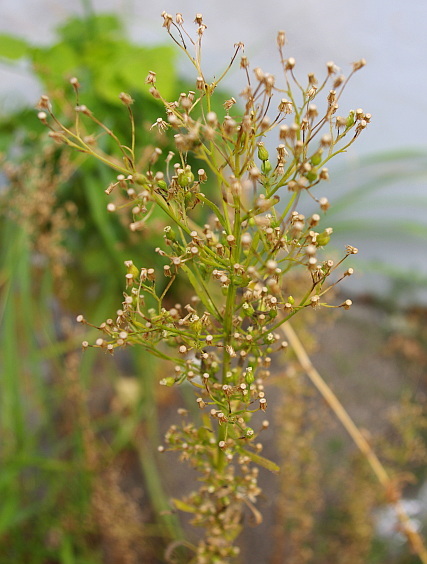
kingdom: Plantae
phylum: Tracheophyta
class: Magnoliopsida
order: Asterales
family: Asteraceae
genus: Erigeron
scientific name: Erigeron canadensis
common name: Canadian fleabane
